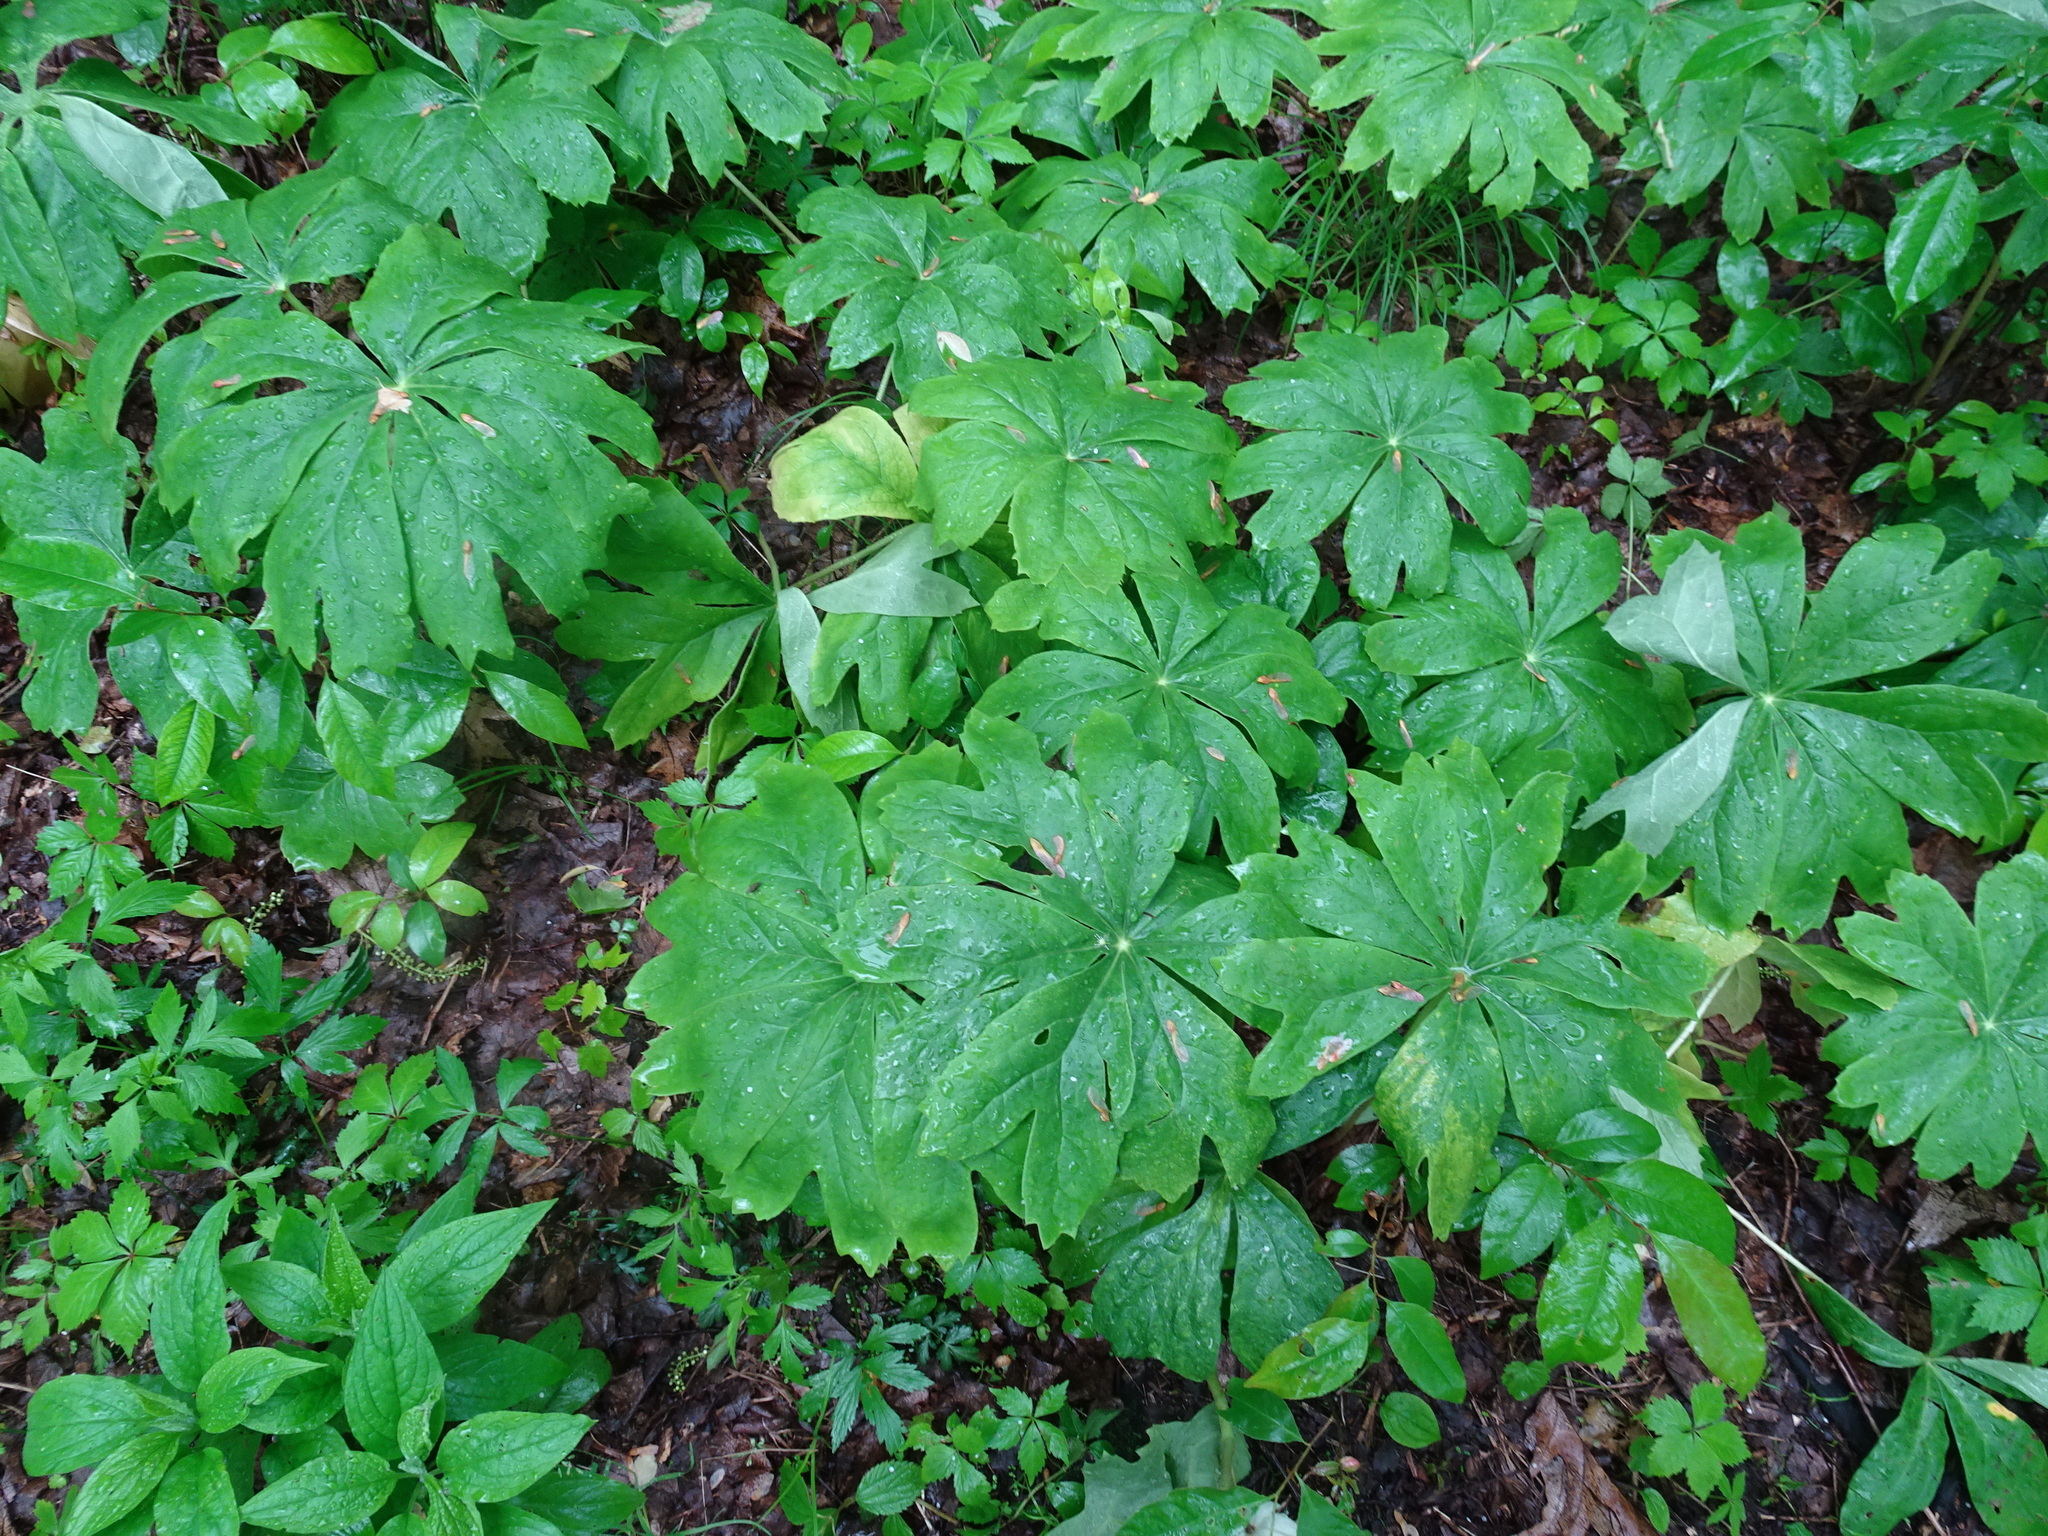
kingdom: Plantae
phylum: Tracheophyta
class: Magnoliopsida
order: Ranunculales
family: Berberidaceae
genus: Podophyllum
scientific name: Podophyllum peltatum
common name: Wild mandrake
